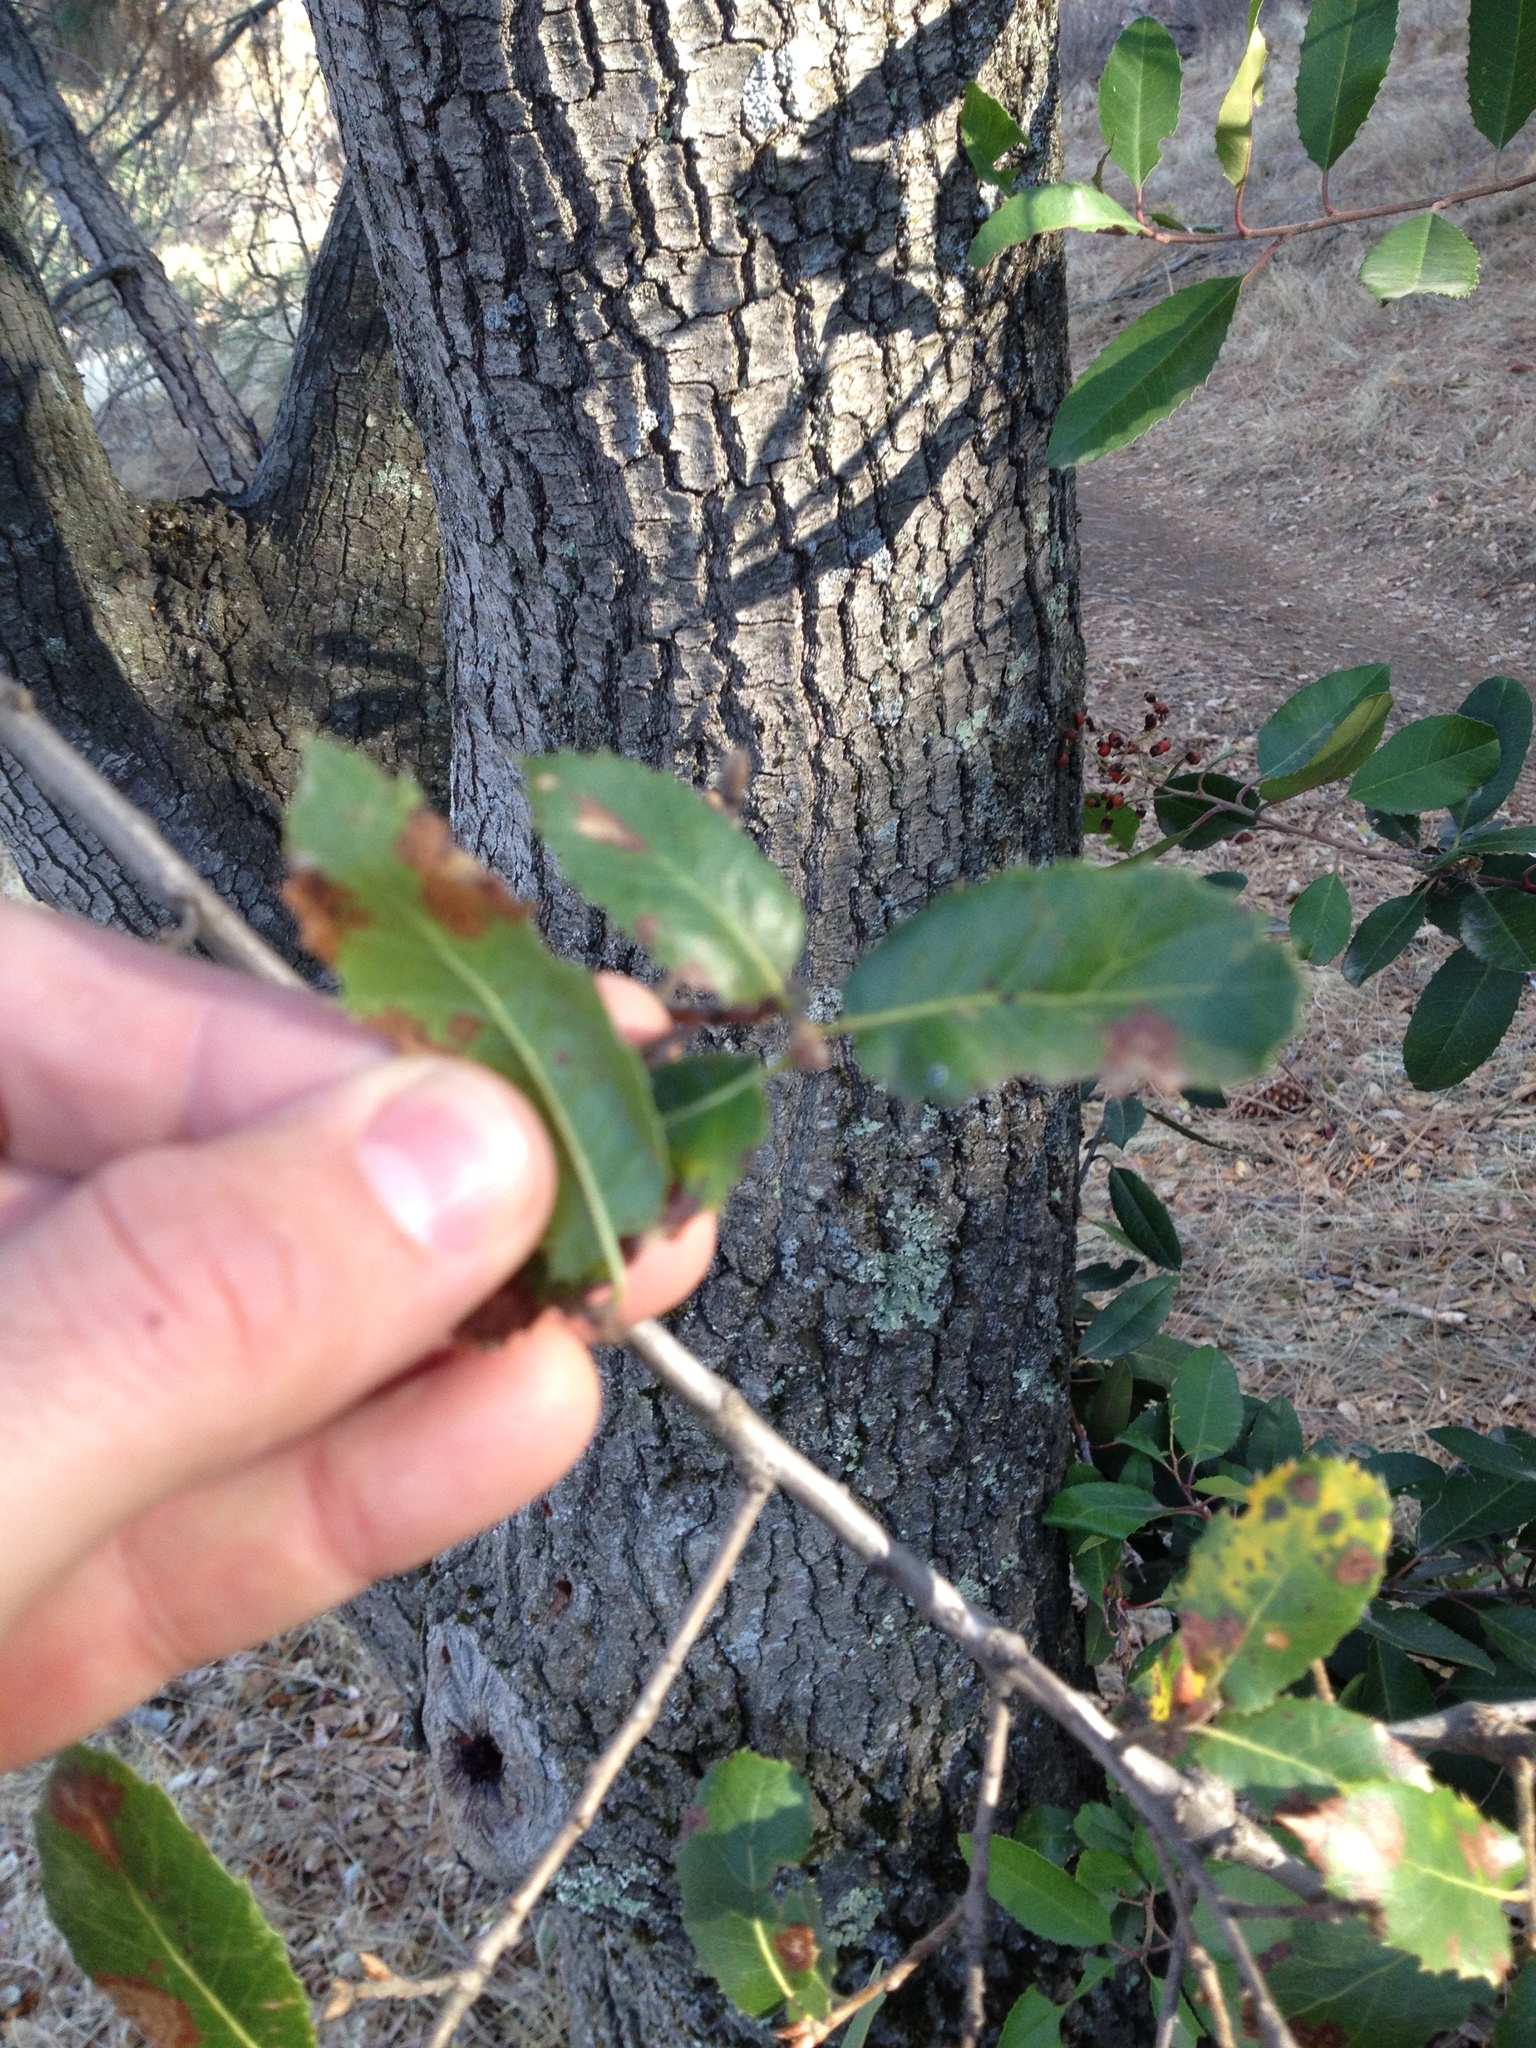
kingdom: Plantae
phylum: Tracheophyta
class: Magnoliopsida
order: Rosales
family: Rosaceae
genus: Heteromeles
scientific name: Heteromeles arbutifolia
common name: California-holly
